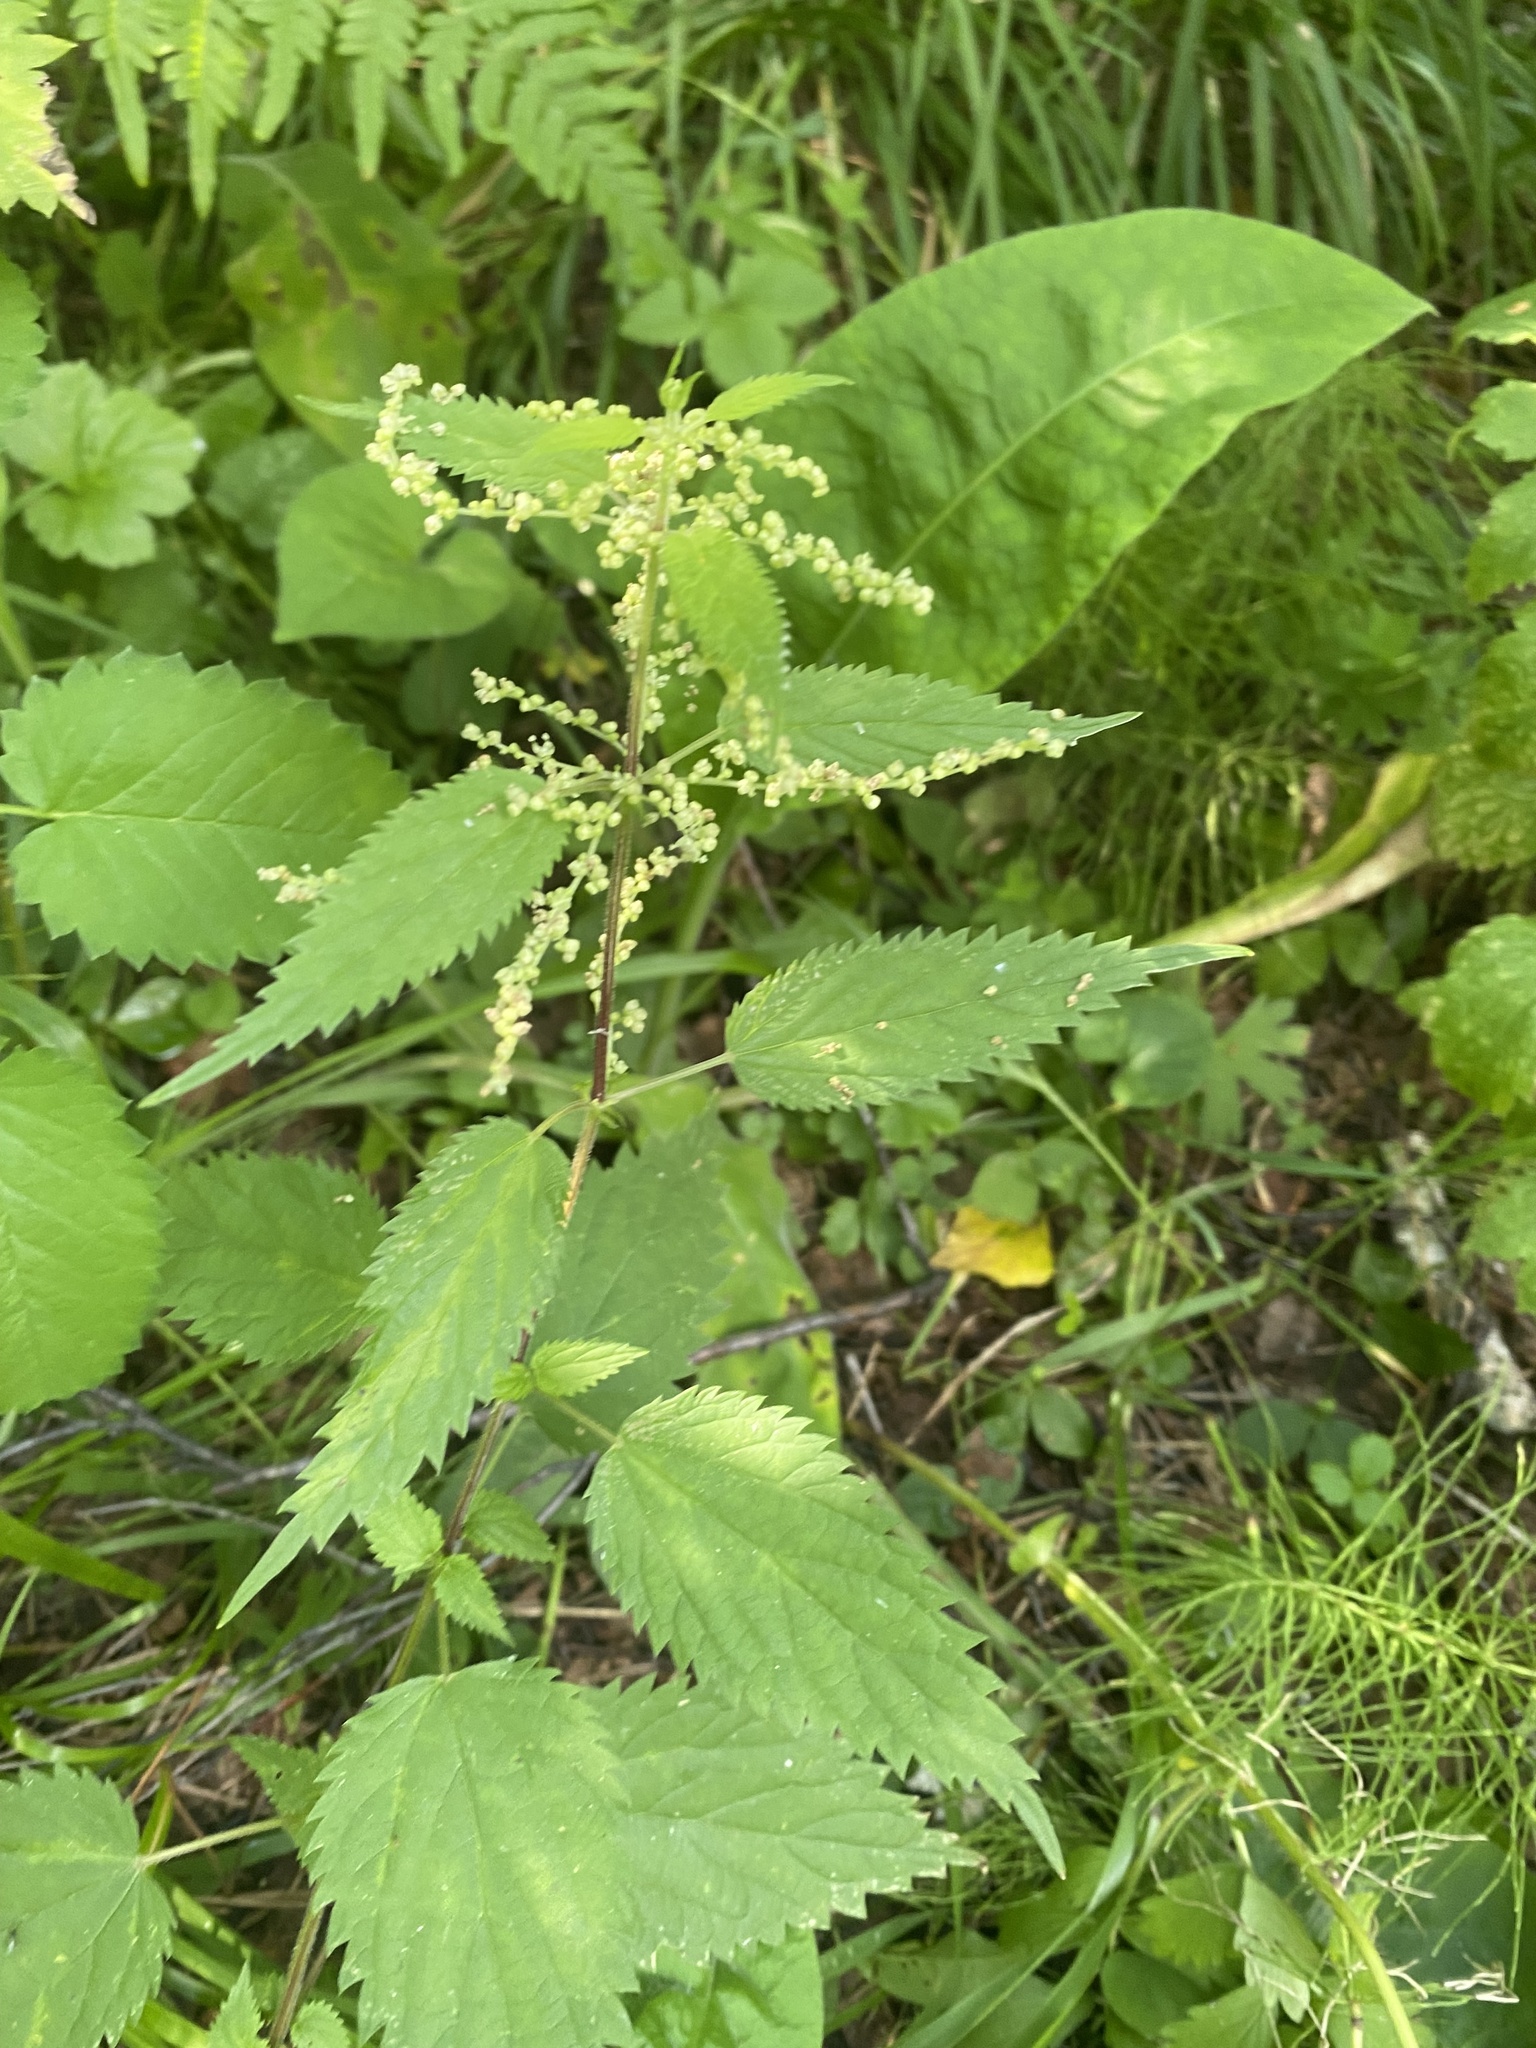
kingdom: Plantae
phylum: Tracheophyta
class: Magnoliopsida
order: Rosales
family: Urticaceae
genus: Urtica
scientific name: Urtica dioica
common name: Common nettle
